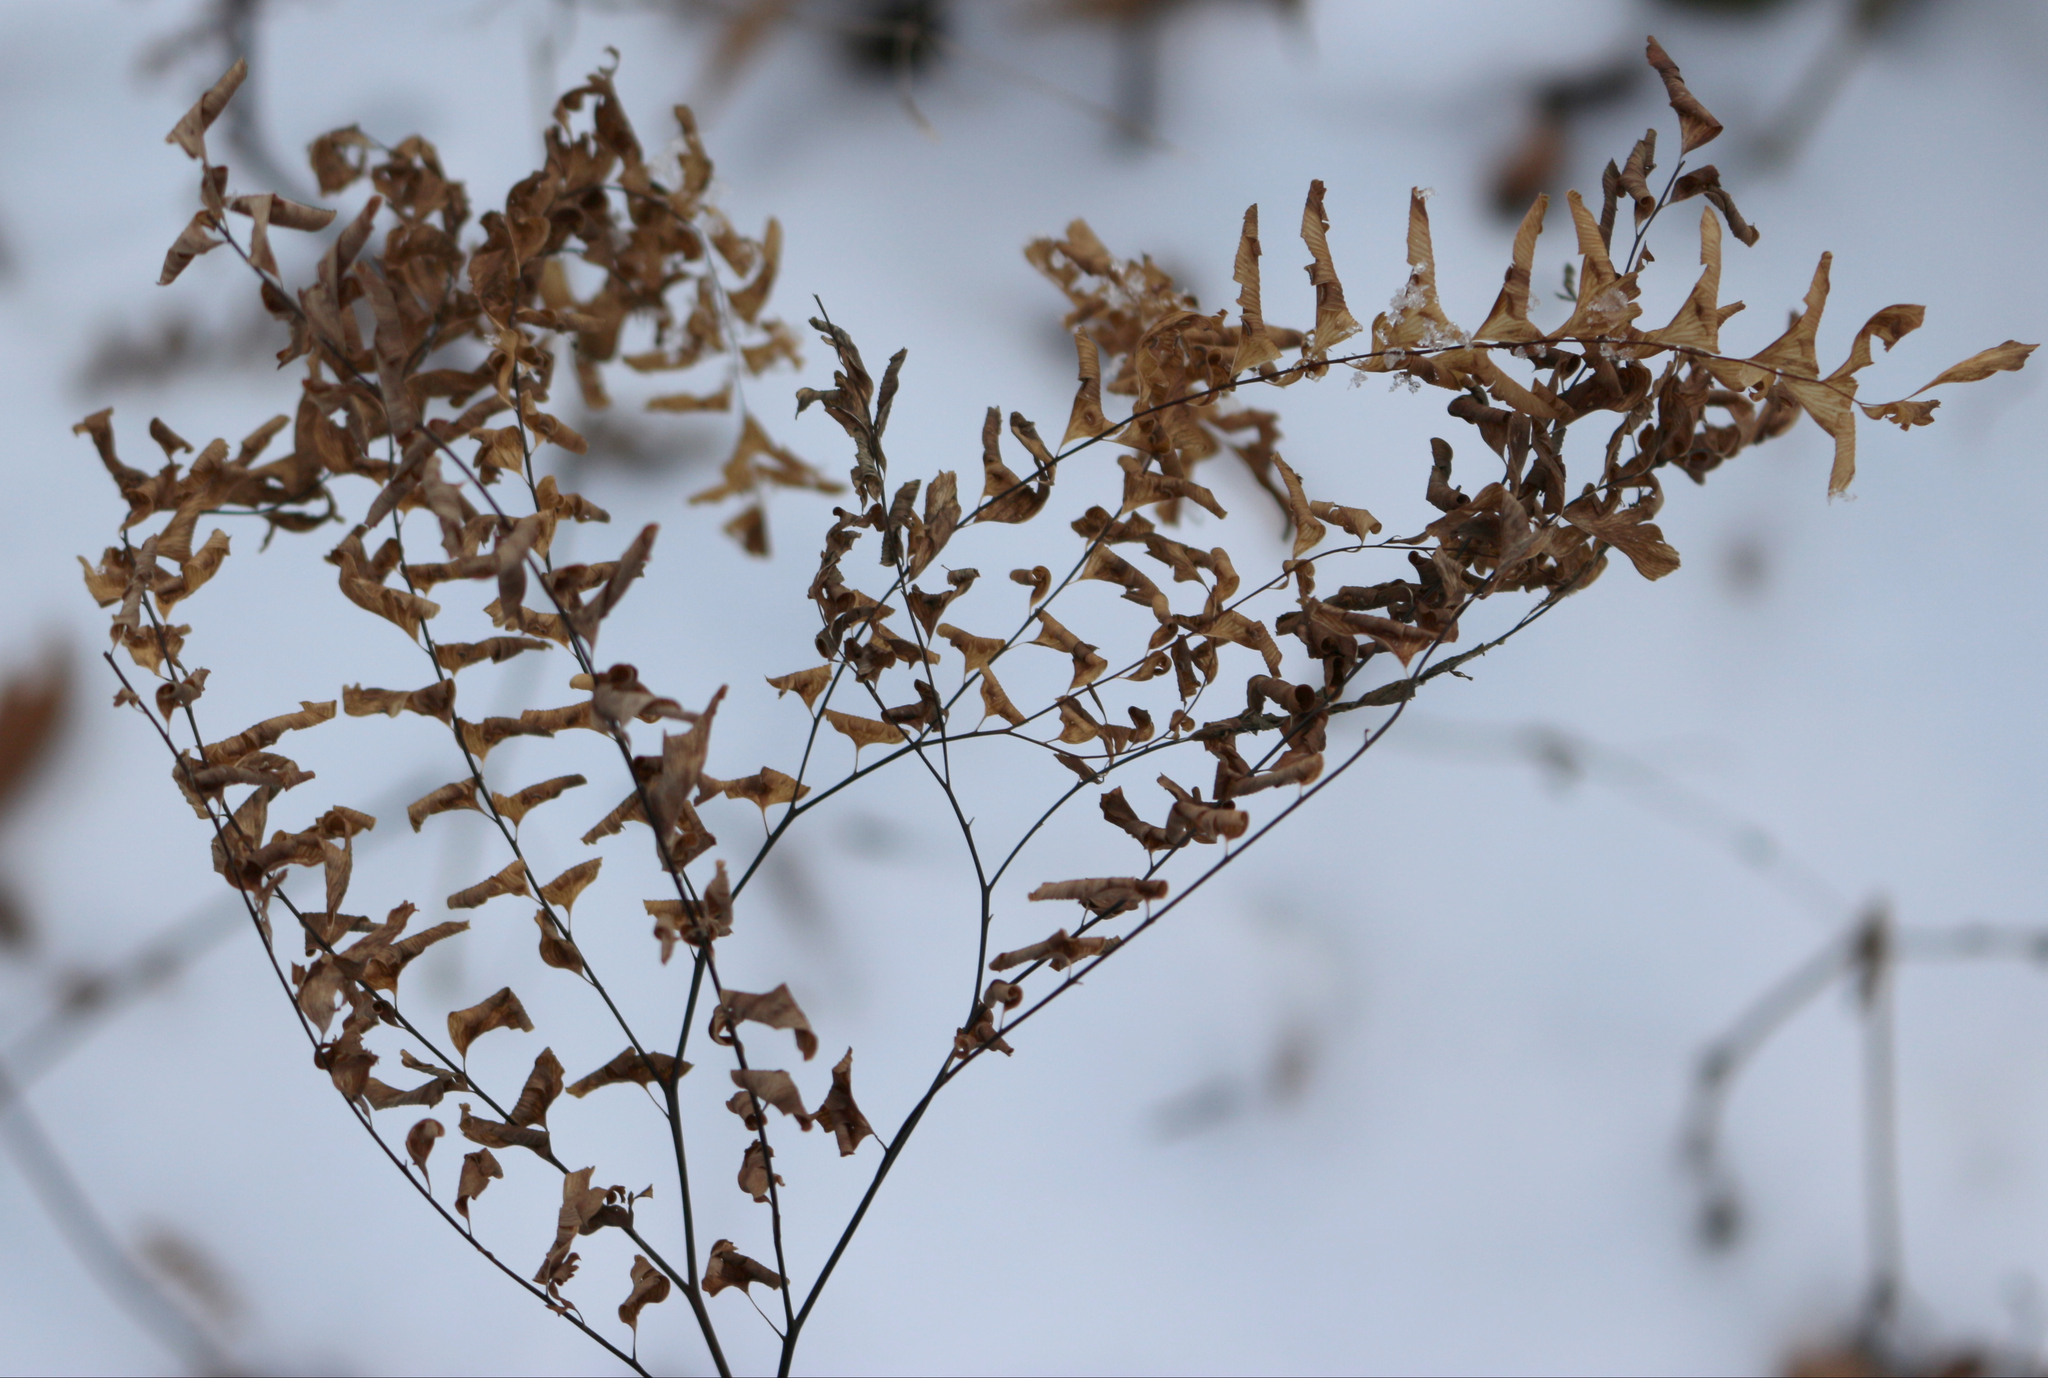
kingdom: Plantae
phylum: Tracheophyta
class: Polypodiopsida
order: Polypodiales
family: Pteridaceae
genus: Adiantum
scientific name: Adiantum pedatum
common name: Five-finger fern
